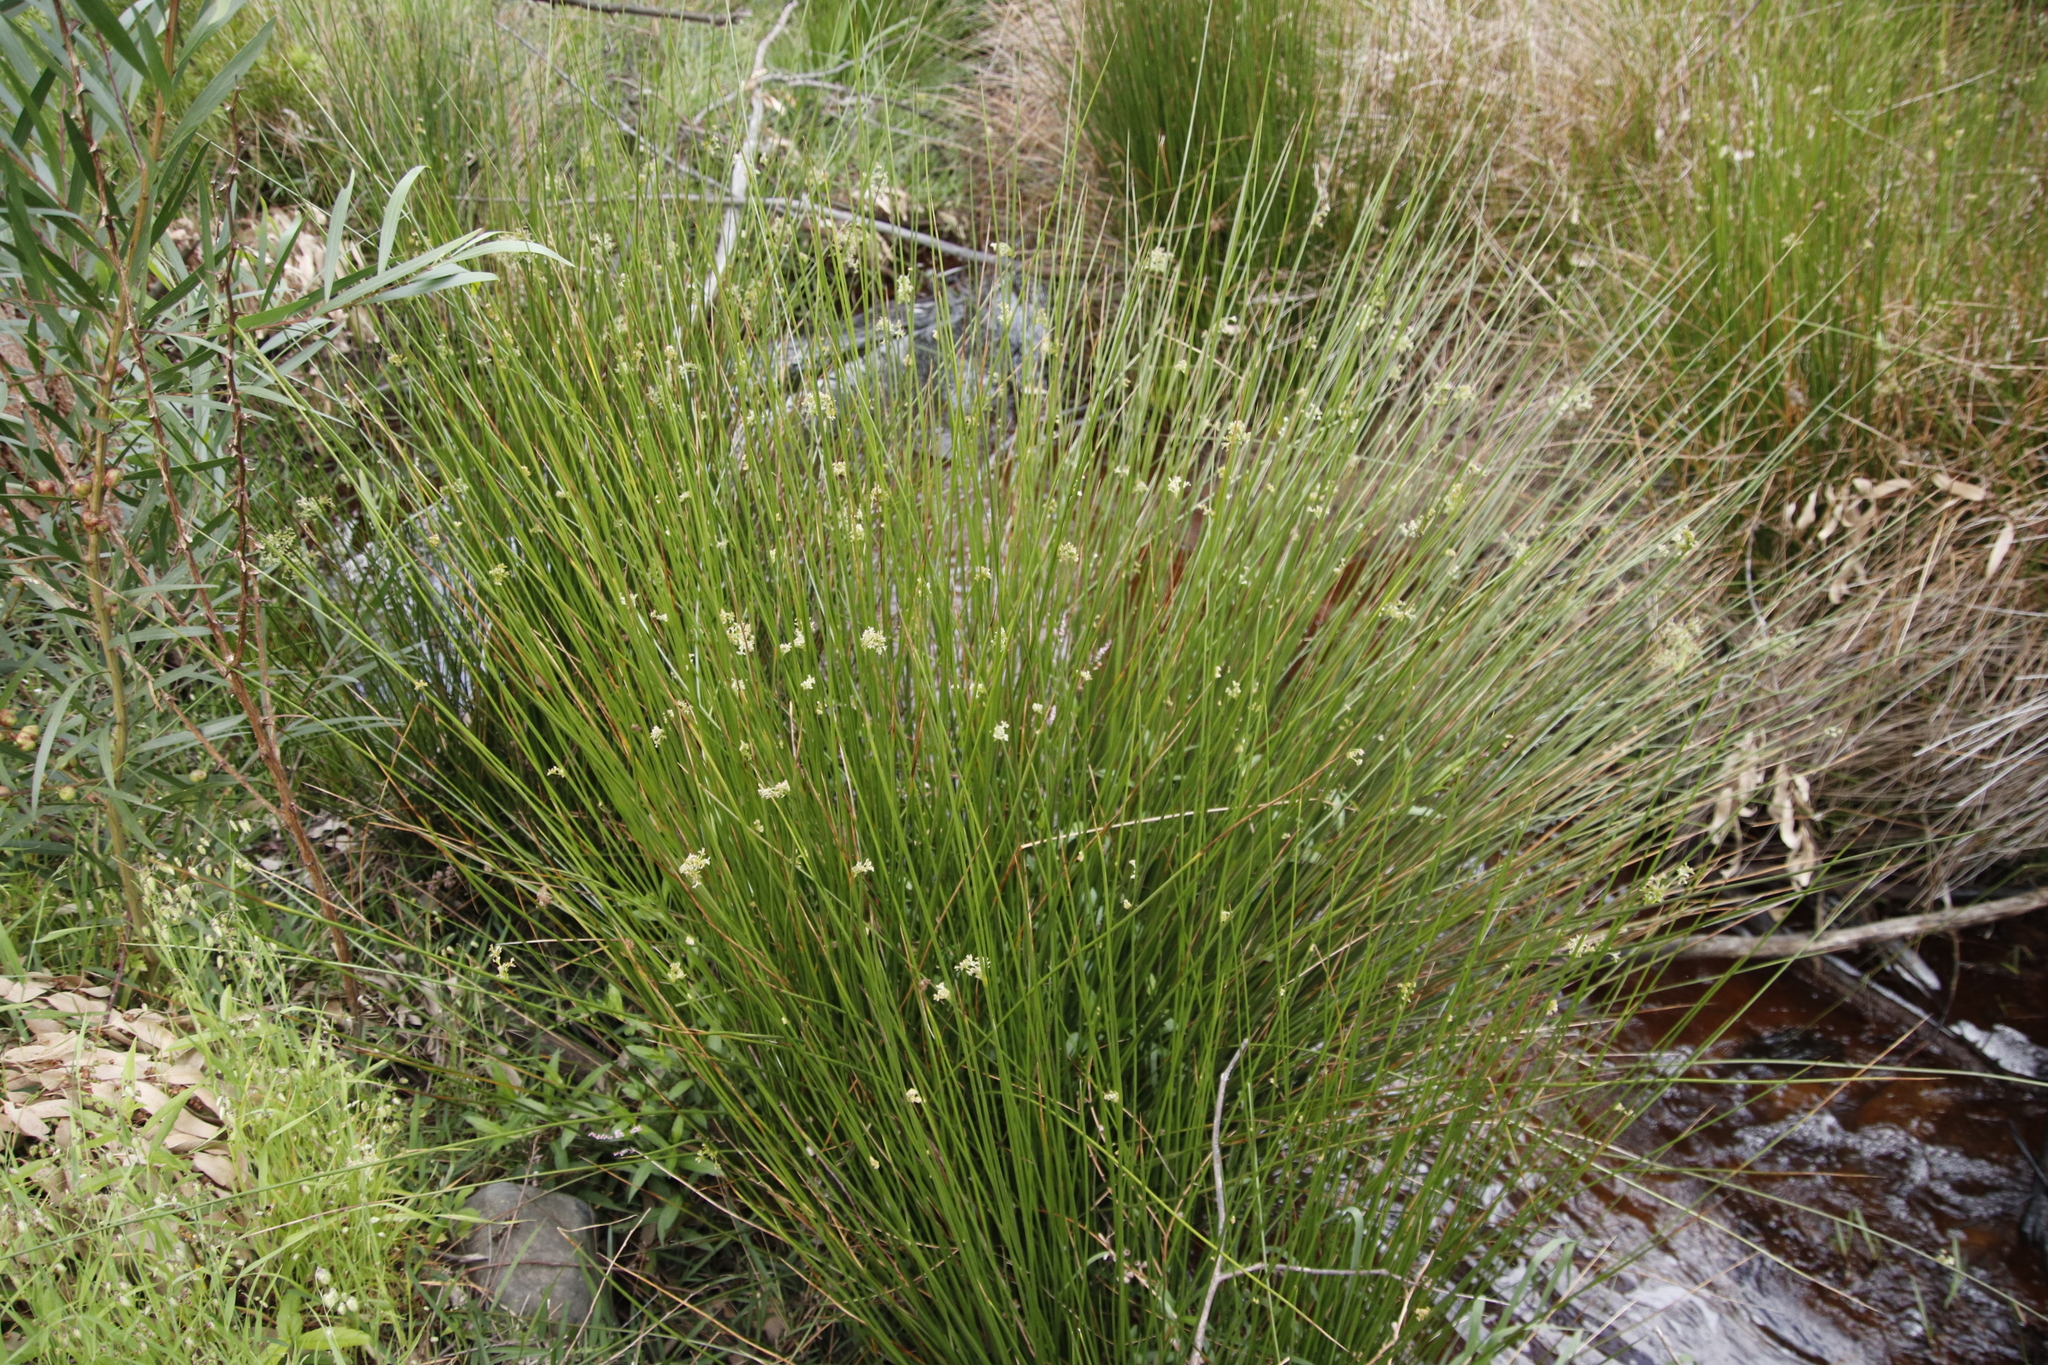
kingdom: Plantae
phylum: Tracheophyta
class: Liliopsida
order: Poales
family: Juncaceae
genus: Juncus
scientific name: Juncus effusus
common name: Soft rush
